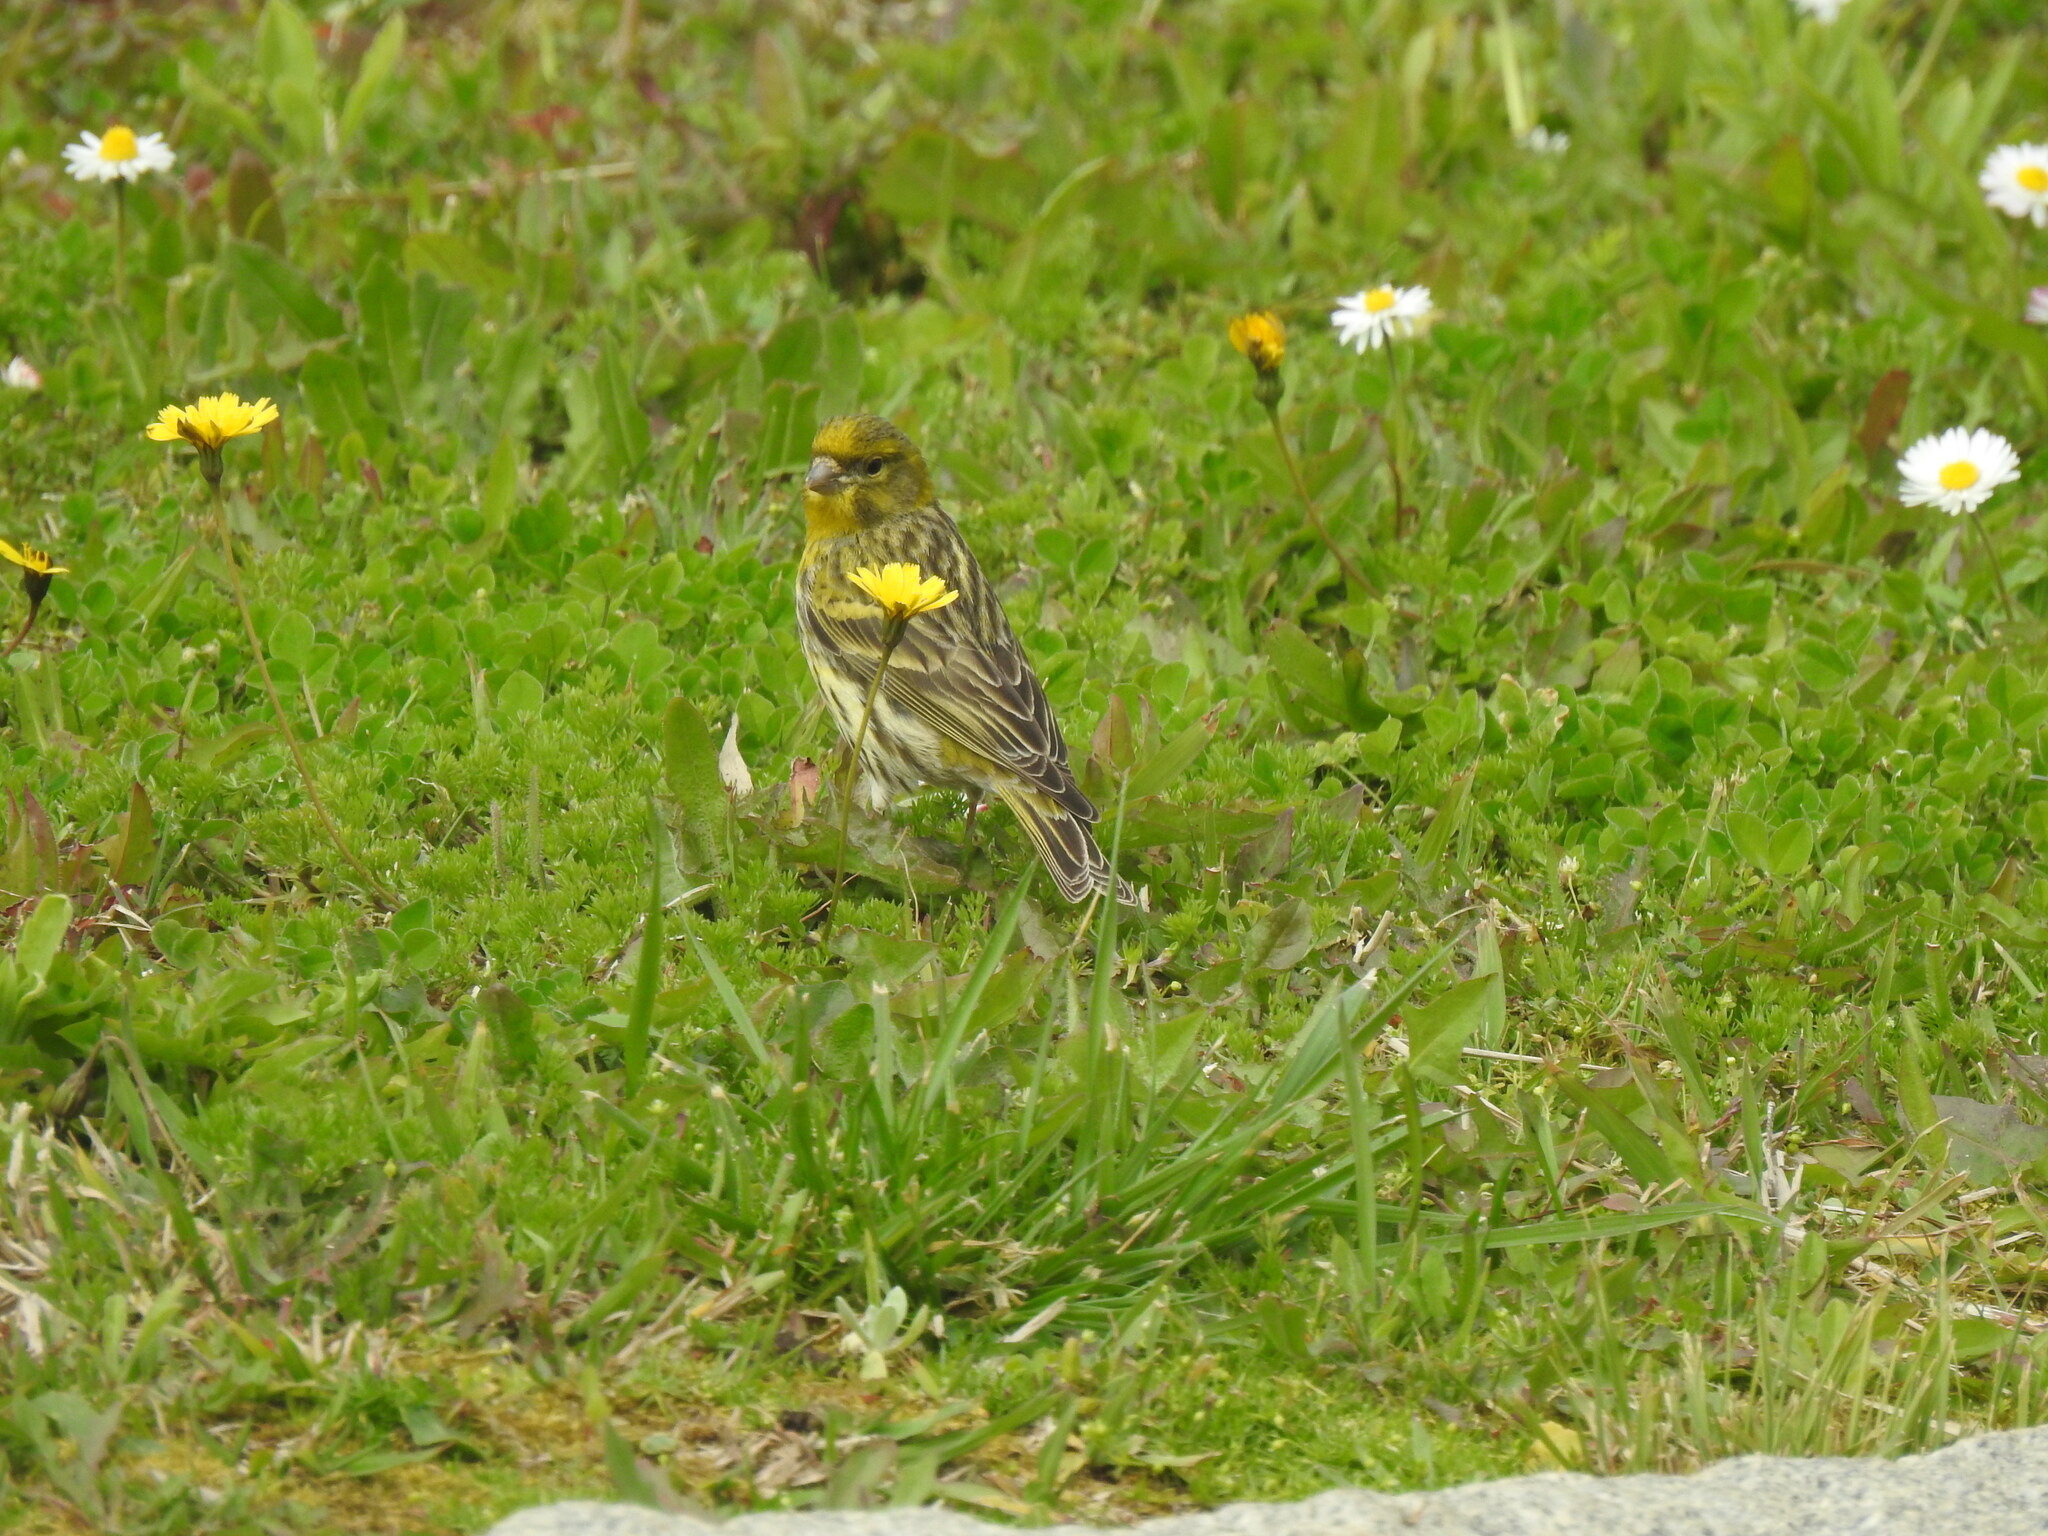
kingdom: Animalia
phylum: Chordata
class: Aves
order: Passeriformes
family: Fringillidae
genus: Serinus
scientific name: Serinus serinus
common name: European serin
